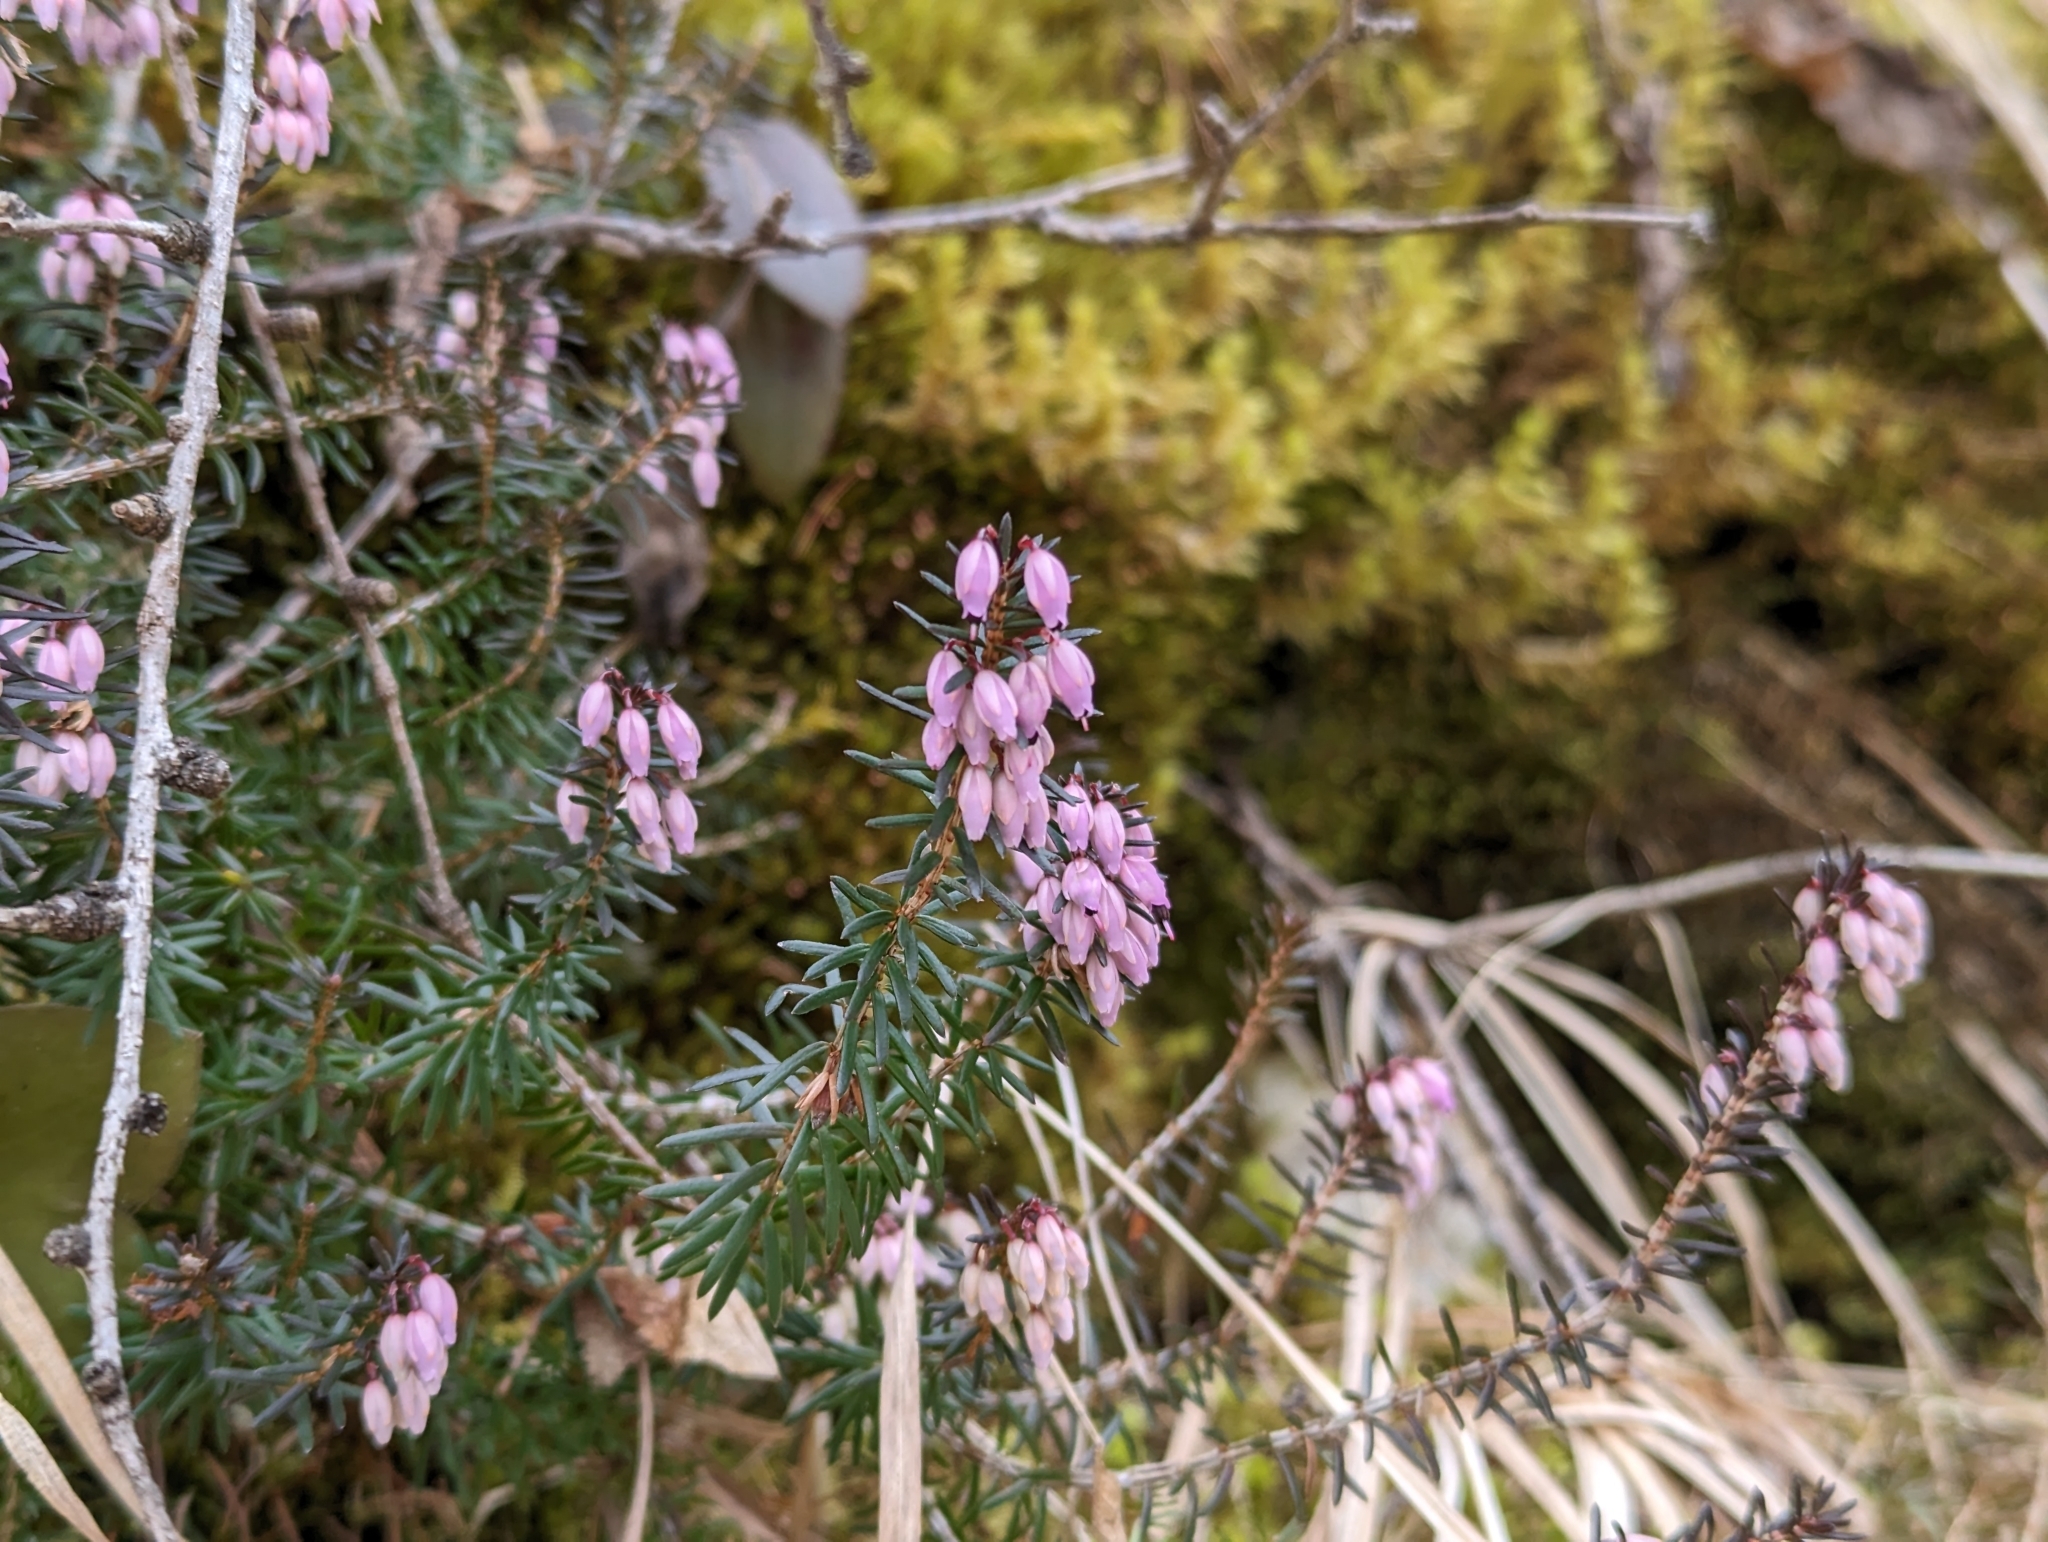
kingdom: Plantae
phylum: Tracheophyta
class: Magnoliopsida
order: Ericales
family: Ericaceae
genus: Erica
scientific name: Erica carnea
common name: Winter heath
